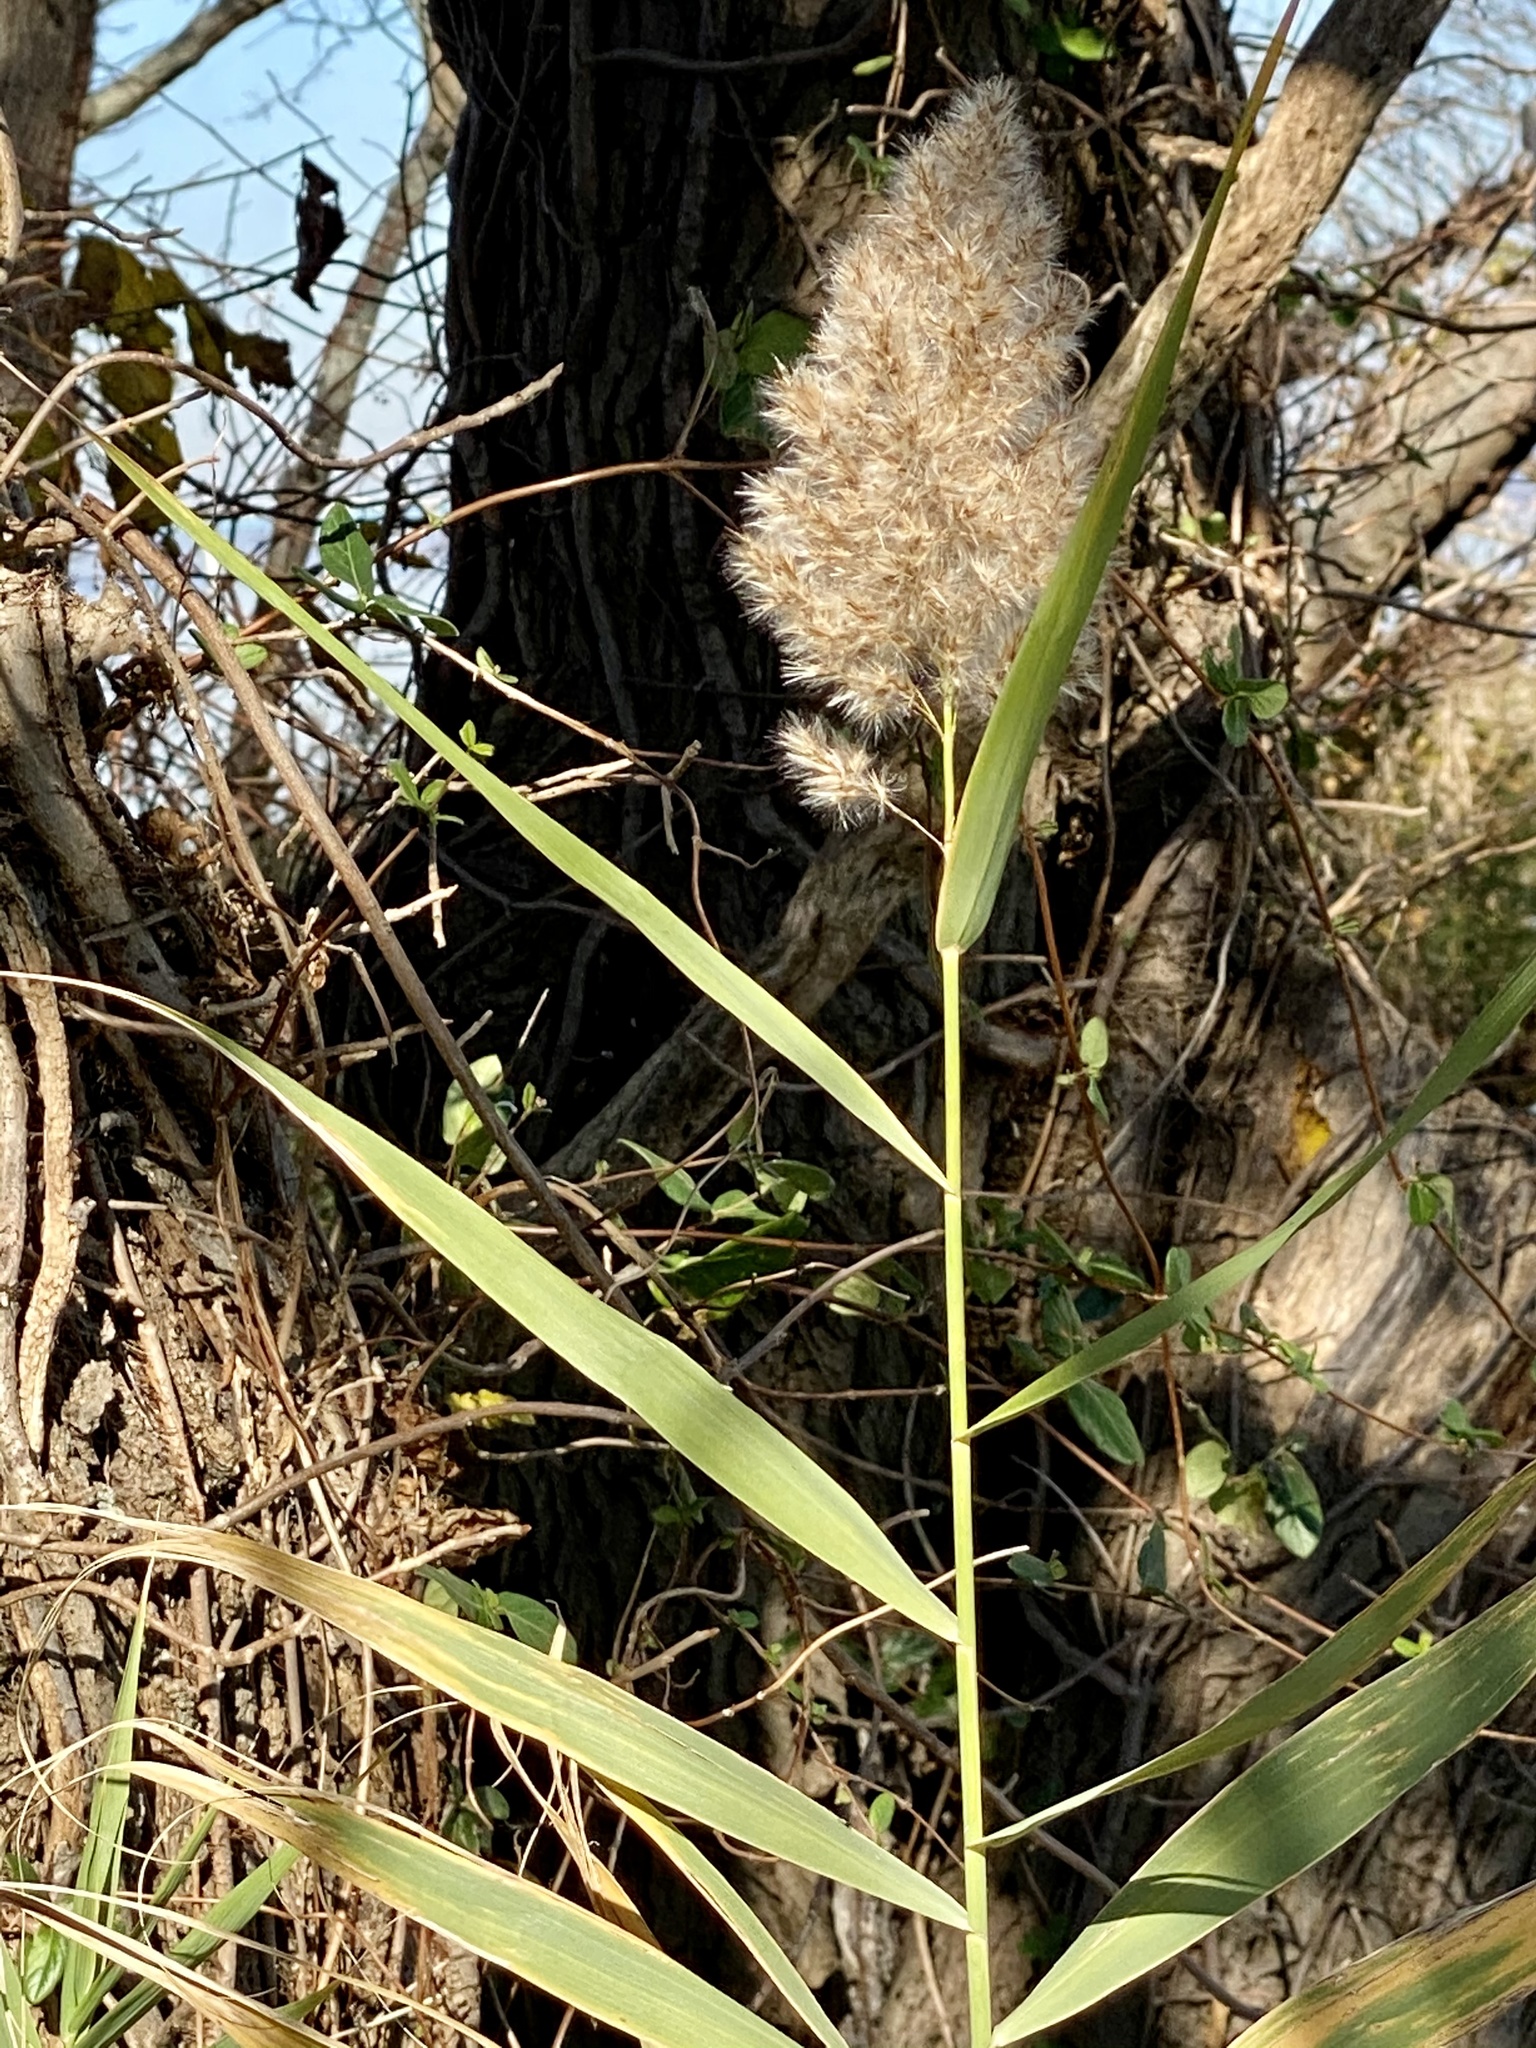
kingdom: Plantae
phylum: Tracheophyta
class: Liliopsida
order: Poales
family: Poaceae
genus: Phragmites
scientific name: Phragmites australis
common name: Common reed
